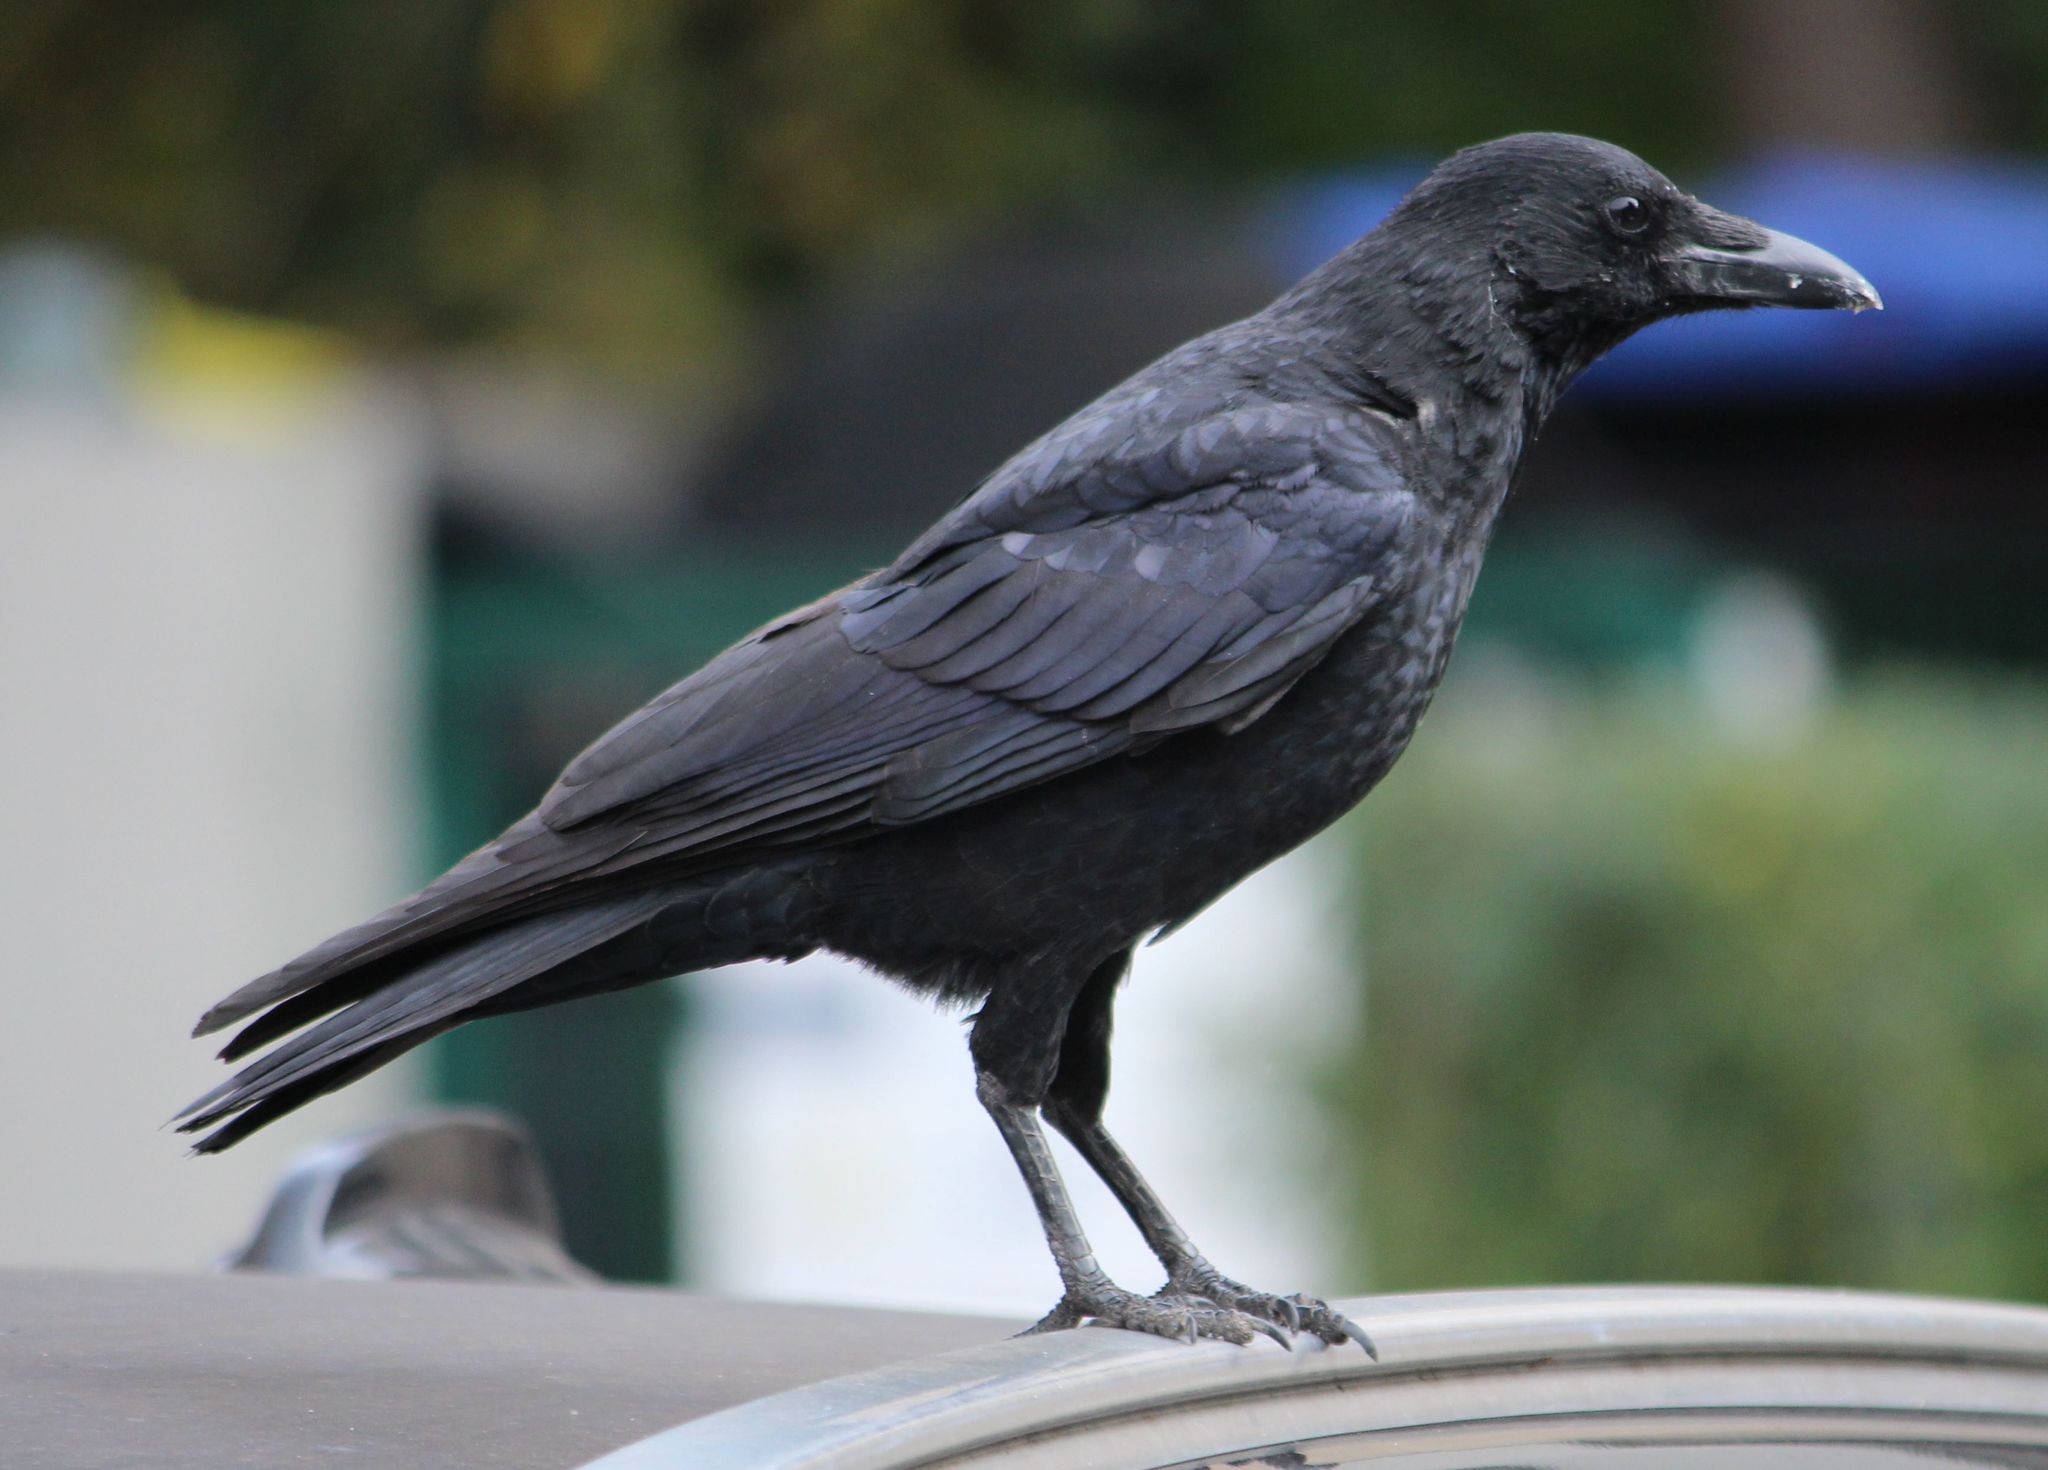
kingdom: Animalia
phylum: Chordata
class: Aves
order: Passeriformes
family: Corvidae
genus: Corvus
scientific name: Corvus corone
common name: Carrion crow
